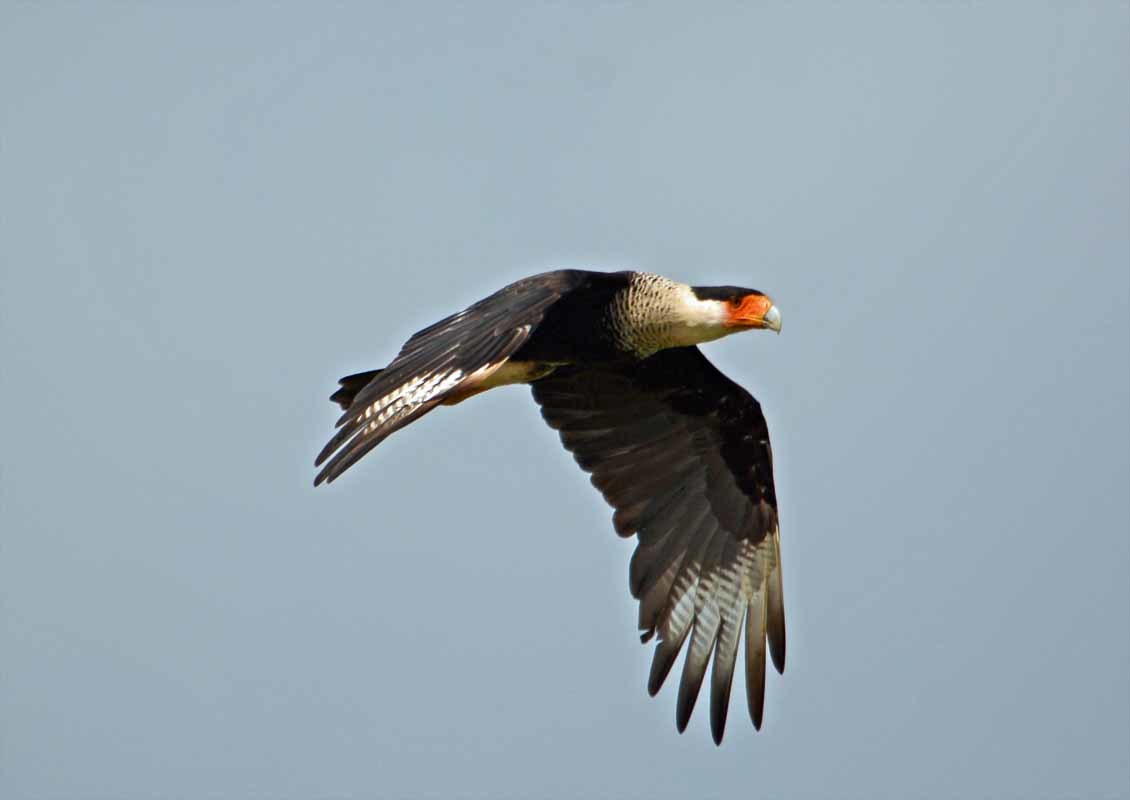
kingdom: Animalia
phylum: Chordata
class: Aves
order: Falconiformes
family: Falconidae
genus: Caracara
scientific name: Caracara plancus
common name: Southern caracara
